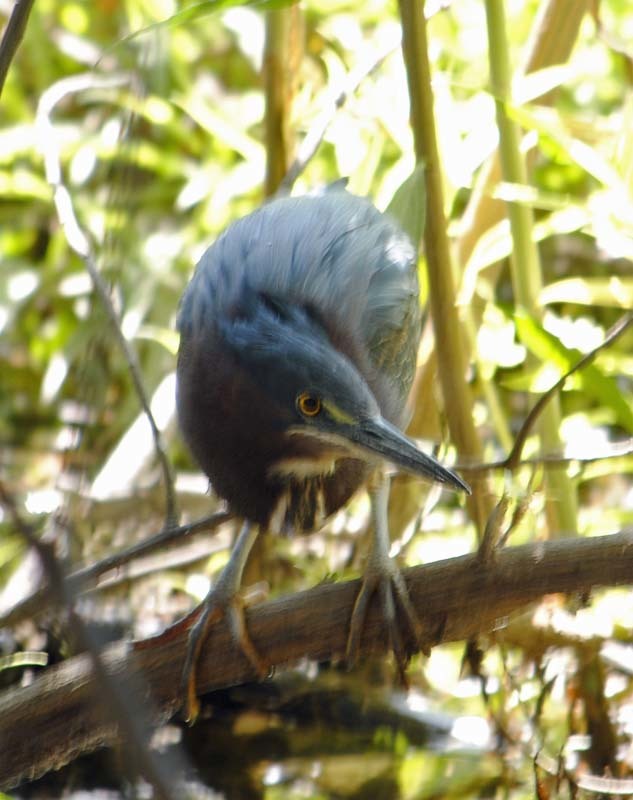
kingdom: Animalia
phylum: Chordata
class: Aves
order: Pelecaniformes
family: Ardeidae
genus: Butorides
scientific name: Butorides virescens
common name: Green heron
